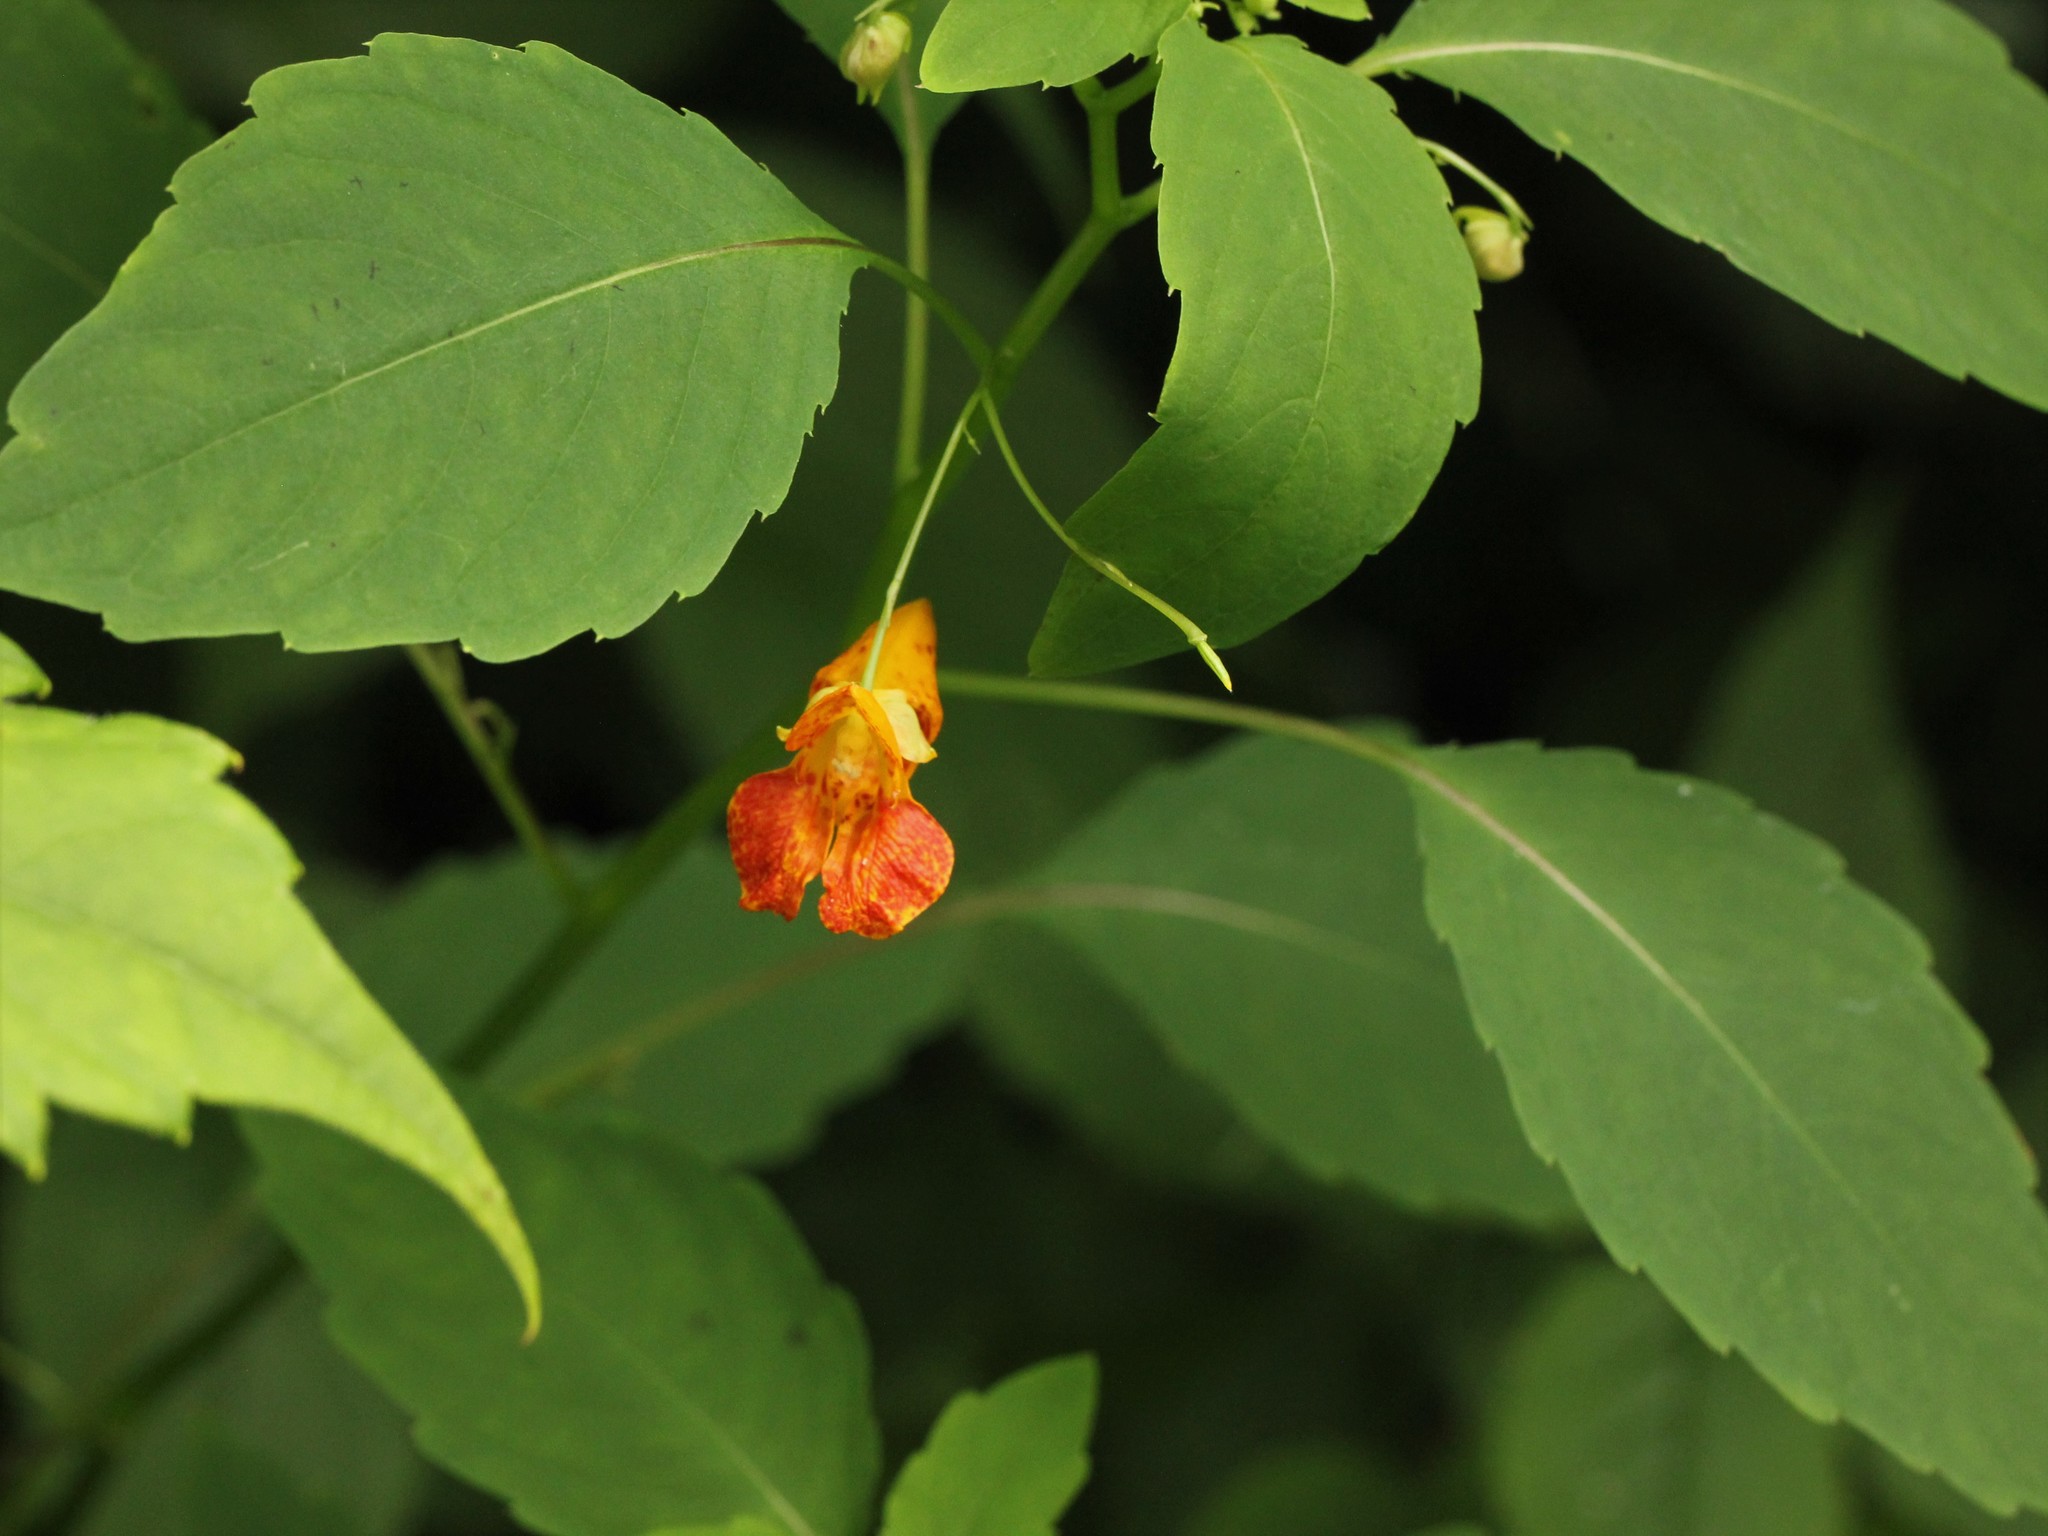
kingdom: Plantae
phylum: Tracheophyta
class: Magnoliopsida
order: Ericales
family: Balsaminaceae
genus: Impatiens
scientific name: Impatiens capensis
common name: Orange balsam
